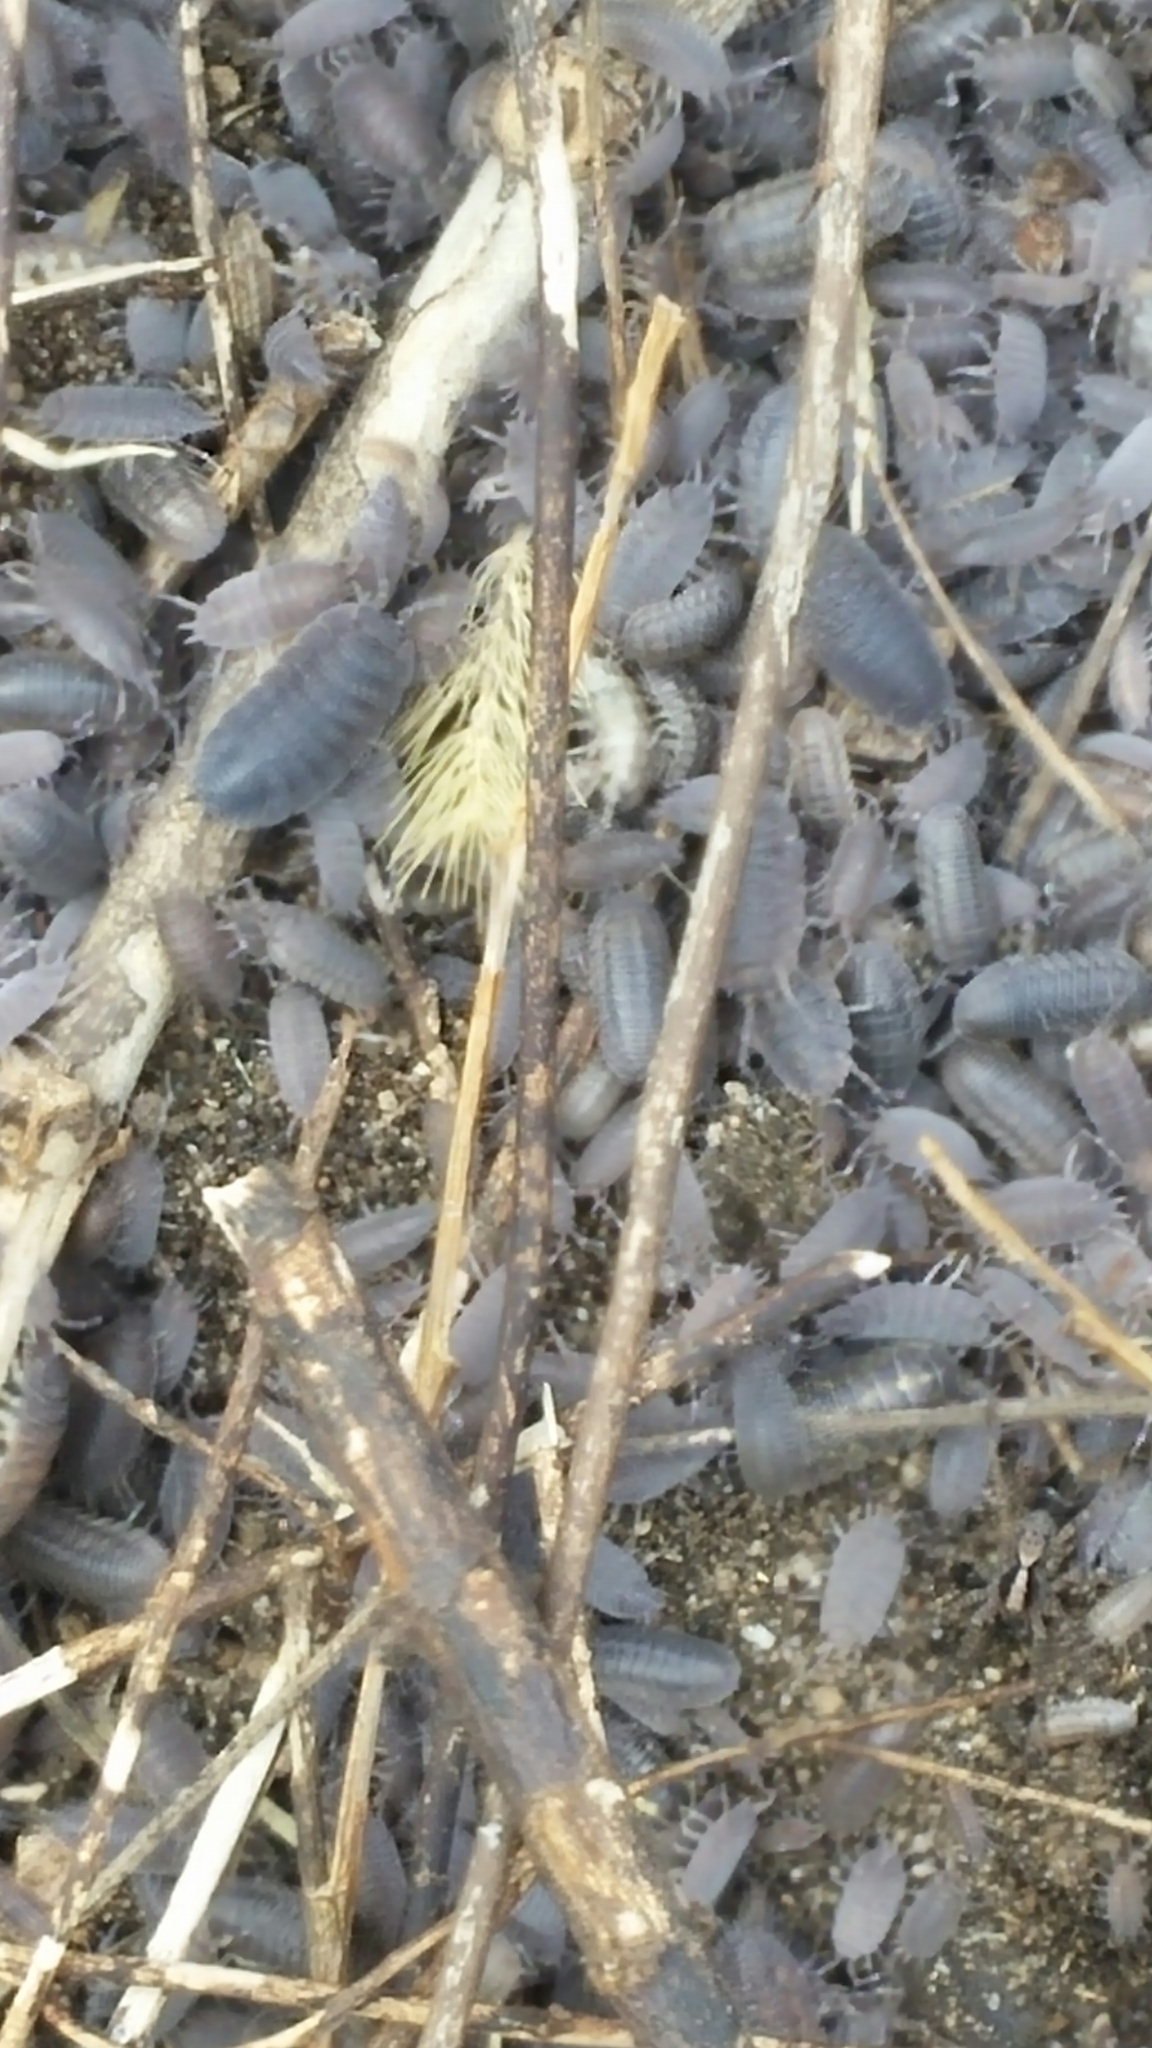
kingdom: Animalia
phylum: Arthropoda
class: Malacostraca
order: Isopoda
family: Porcellionidae
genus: Porcellio
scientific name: Porcellio scaber
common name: Common rough woodlouse
